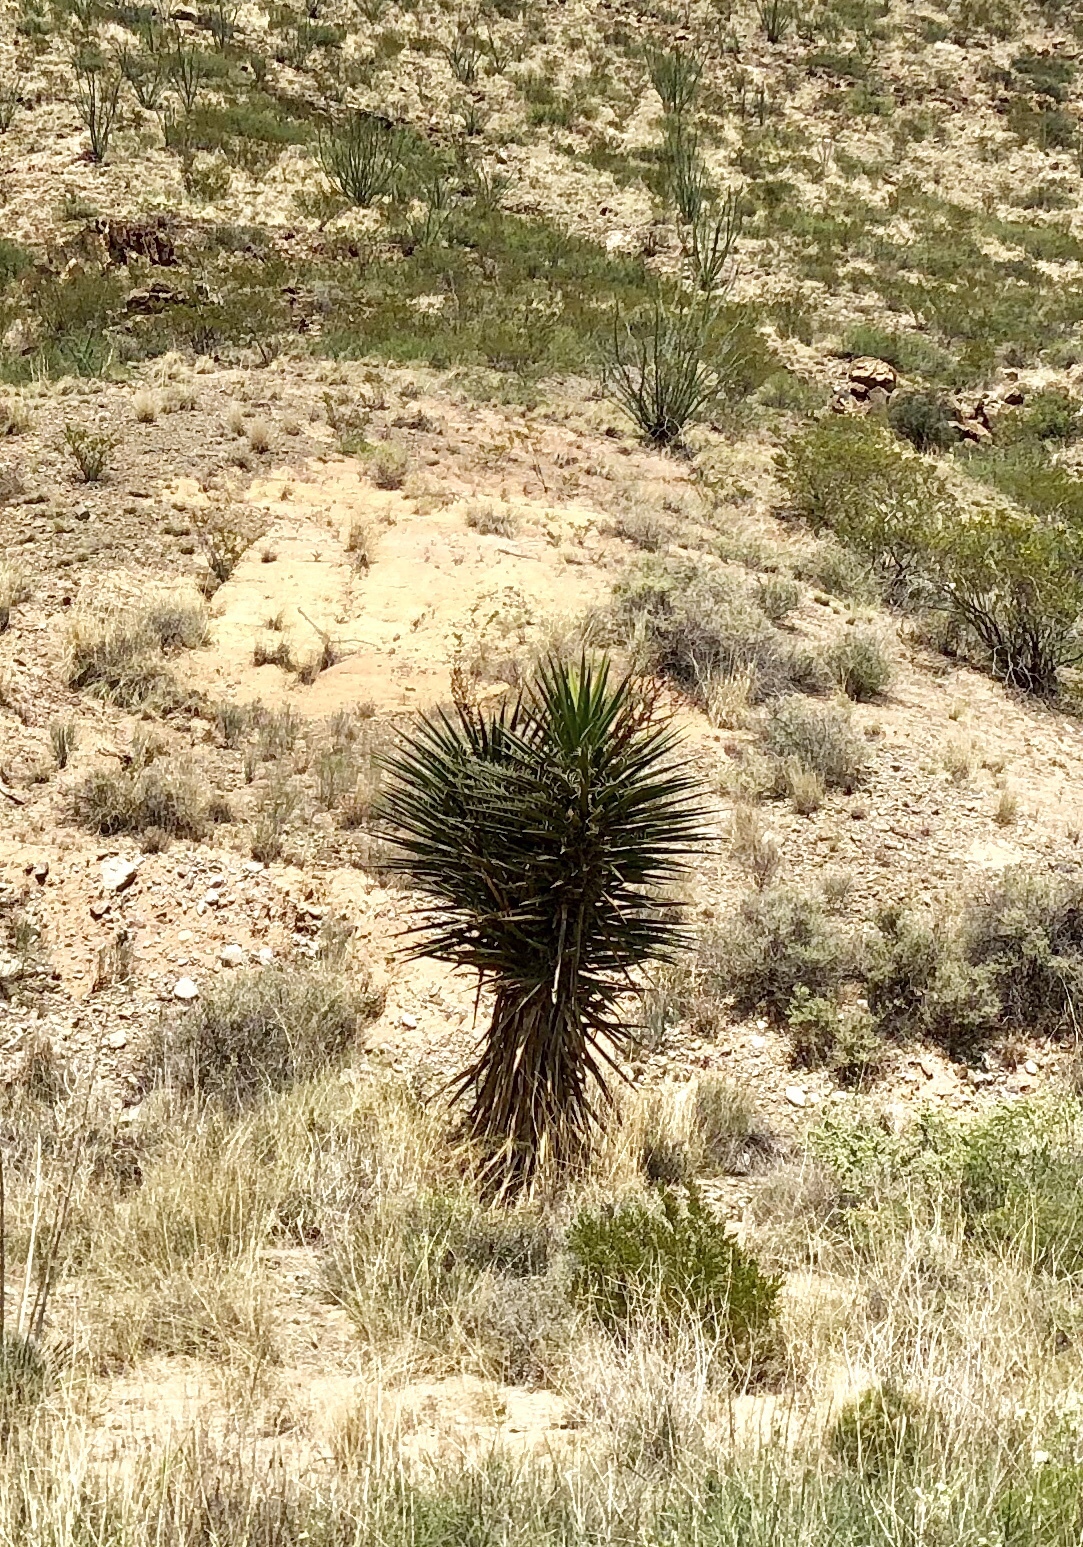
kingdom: Plantae
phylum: Tracheophyta
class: Liliopsida
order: Asparagales
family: Asparagaceae
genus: Yucca
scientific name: Yucca treculiana
